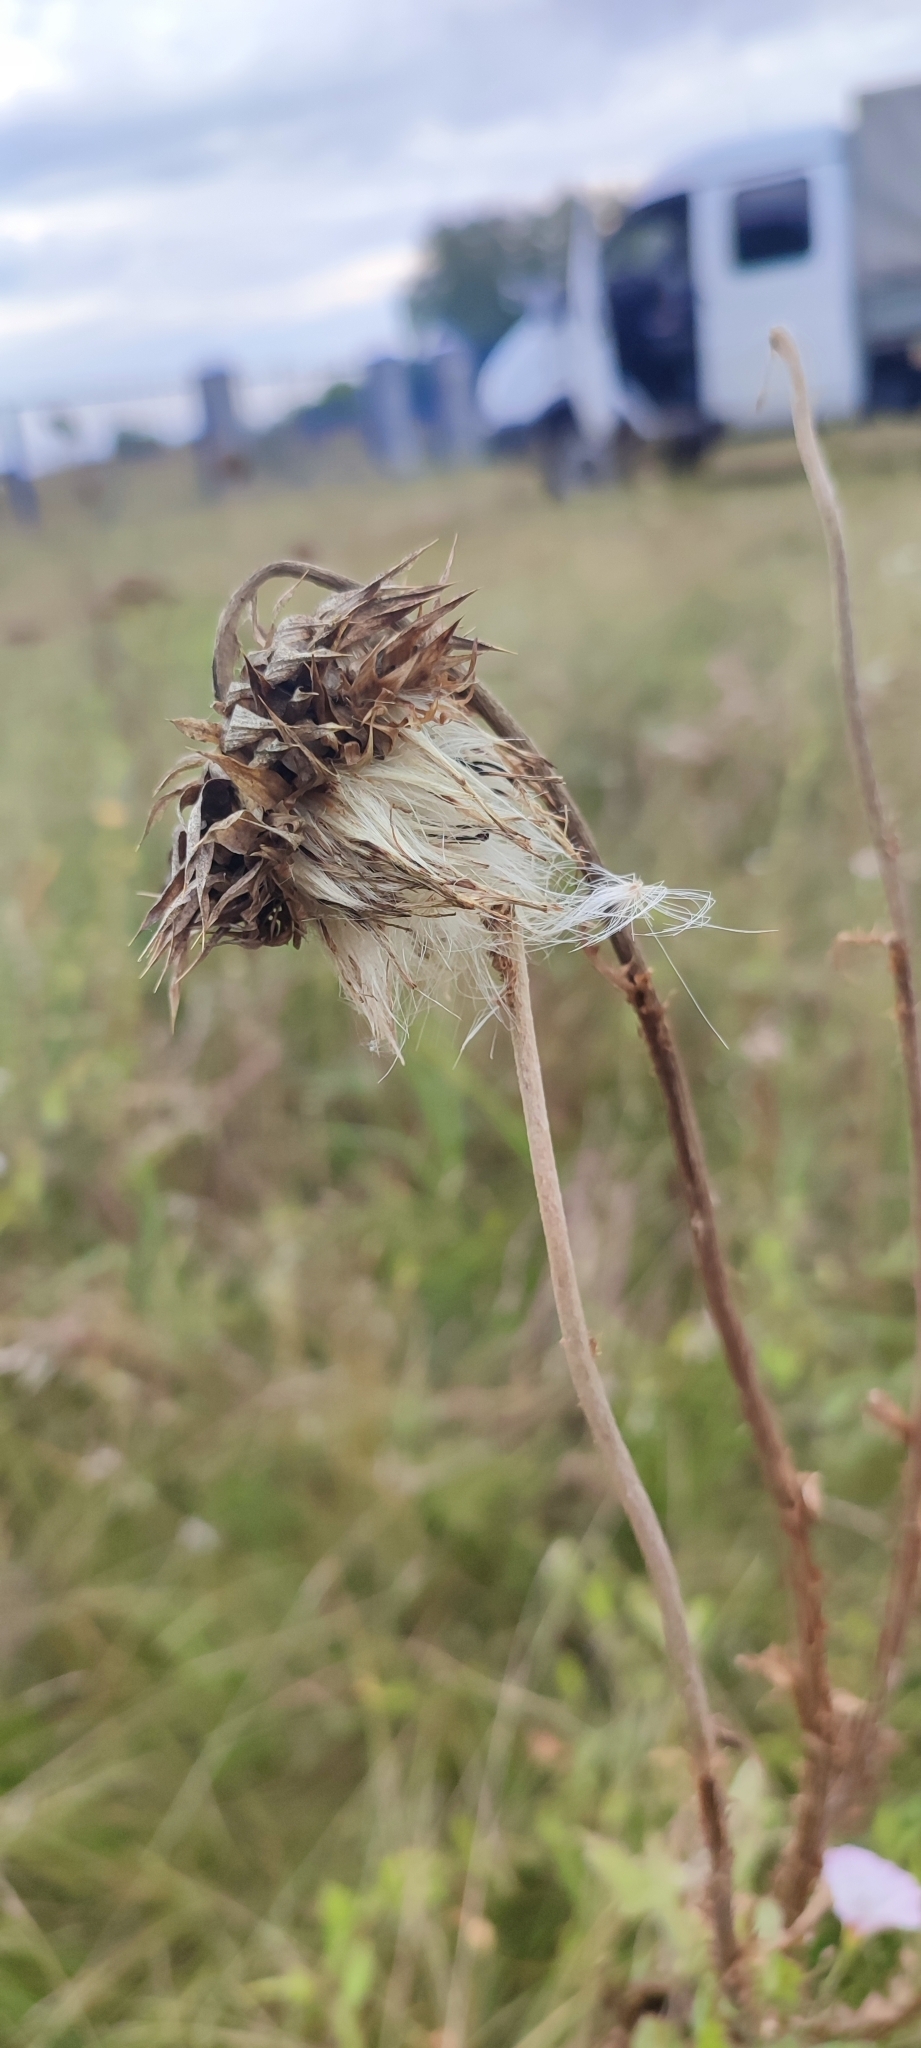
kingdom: Plantae
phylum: Tracheophyta
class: Magnoliopsida
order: Asterales
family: Asteraceae
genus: Carduus
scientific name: Carduus nutans
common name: Musk thistle
